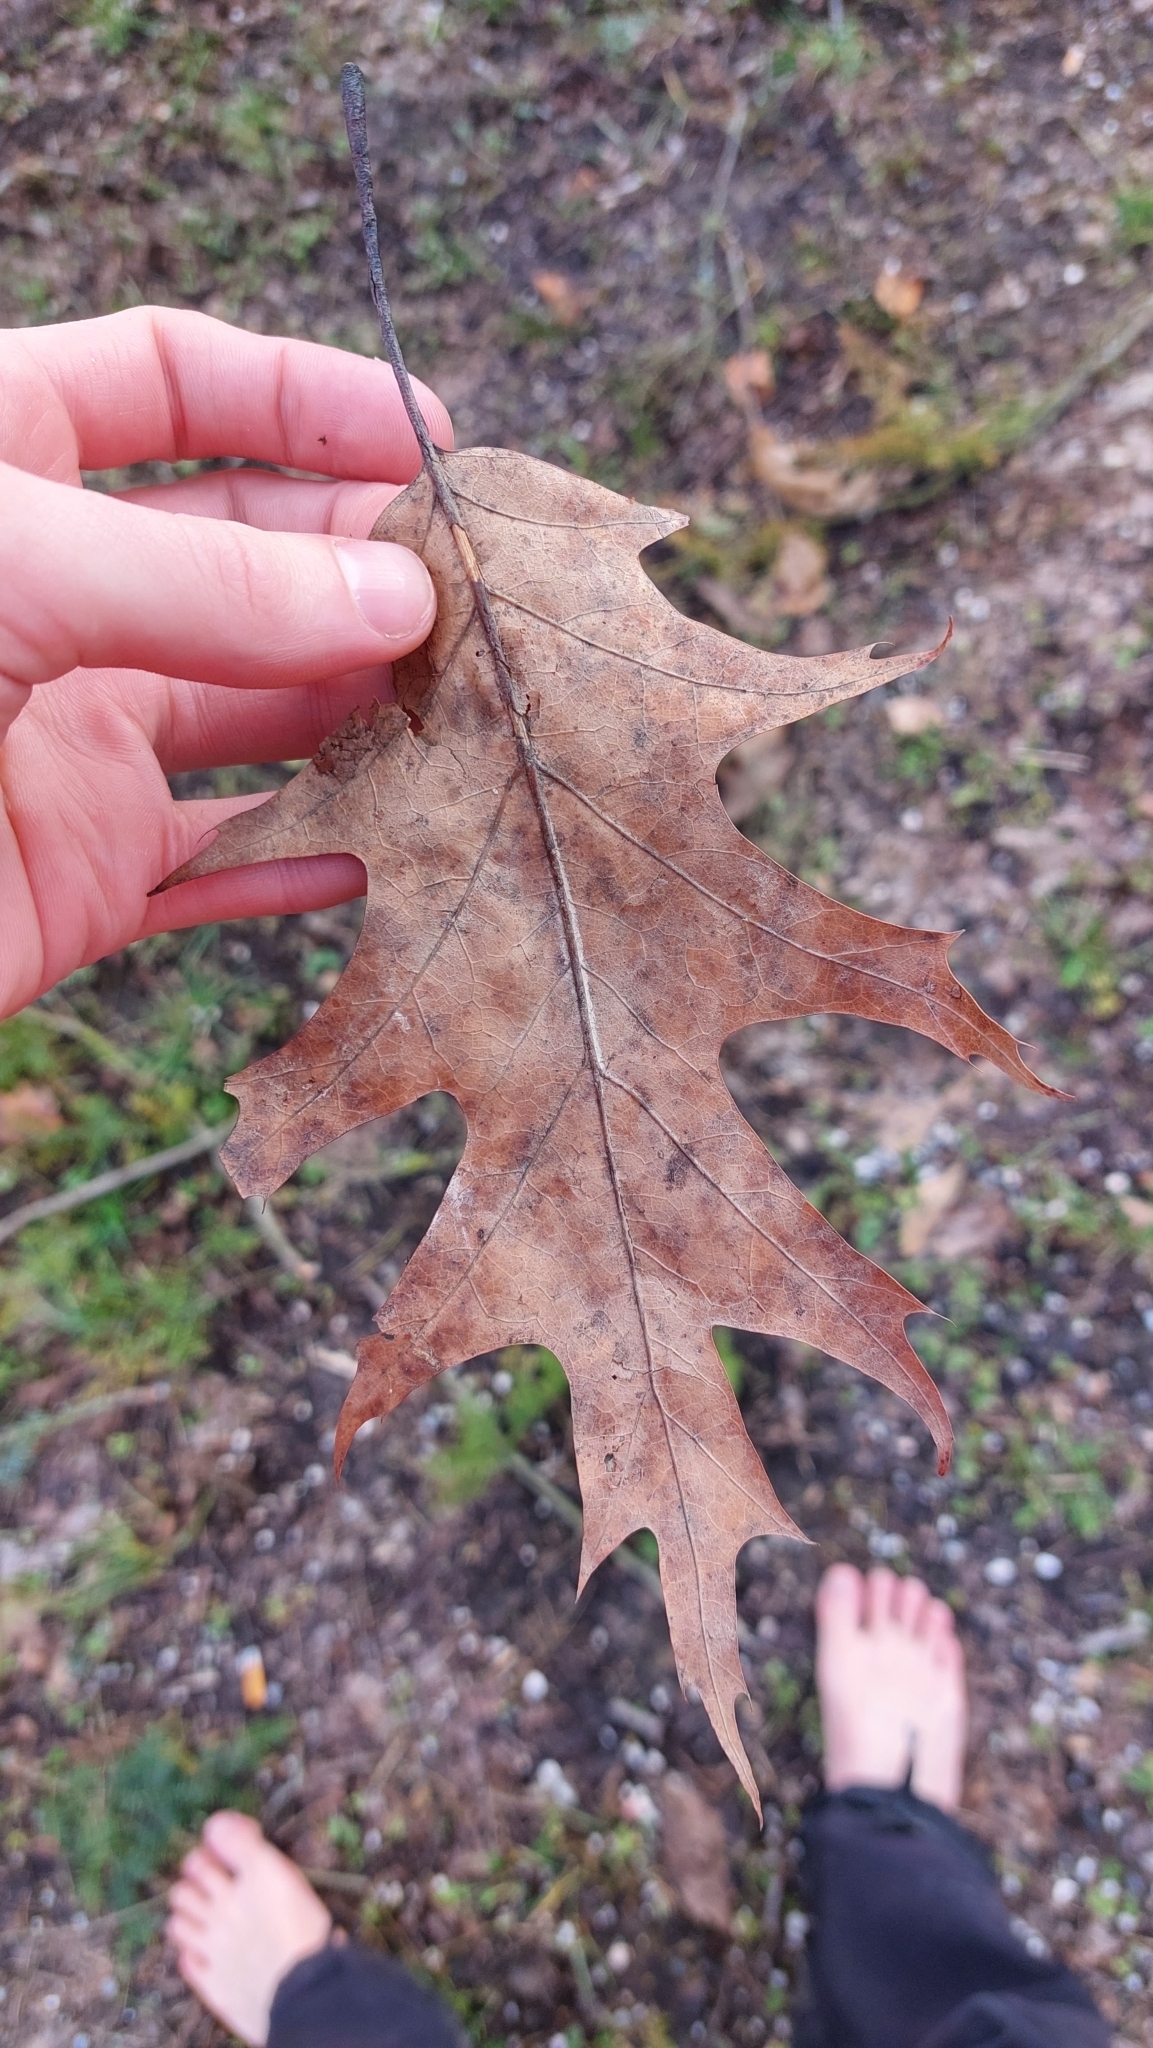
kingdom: Plantae
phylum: Tracheophyta
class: Magnoliopsida
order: Fagales
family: Fagaceae
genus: Quercus
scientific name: Quercus rubra
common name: Red oak
